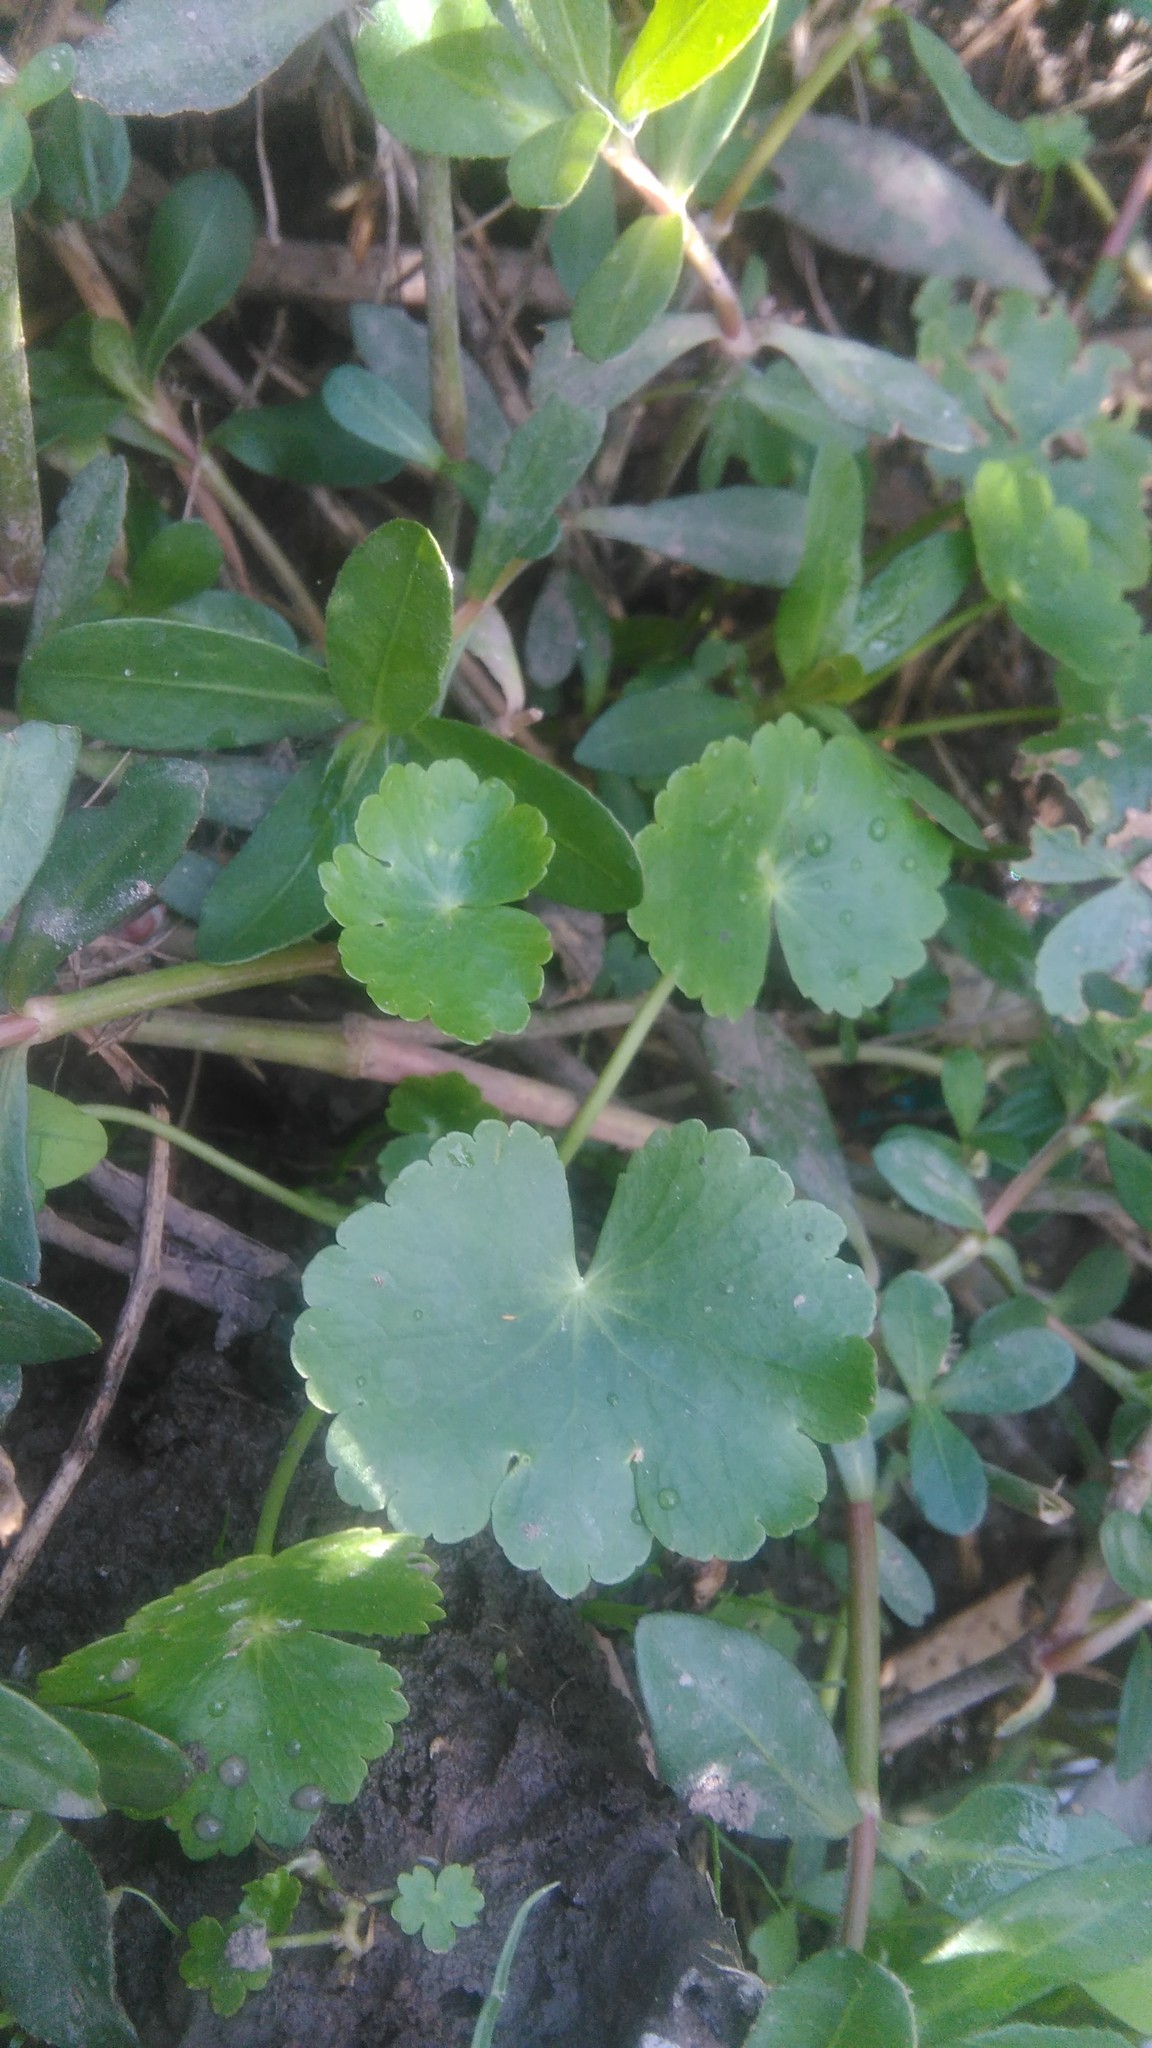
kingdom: Plantae
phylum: Tracheophyta
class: Magnoliopsida
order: Apiales
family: Araliaceae
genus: Hydrocotyle
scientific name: Hydrocotyle ranunculoides
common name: Floating pennywort
